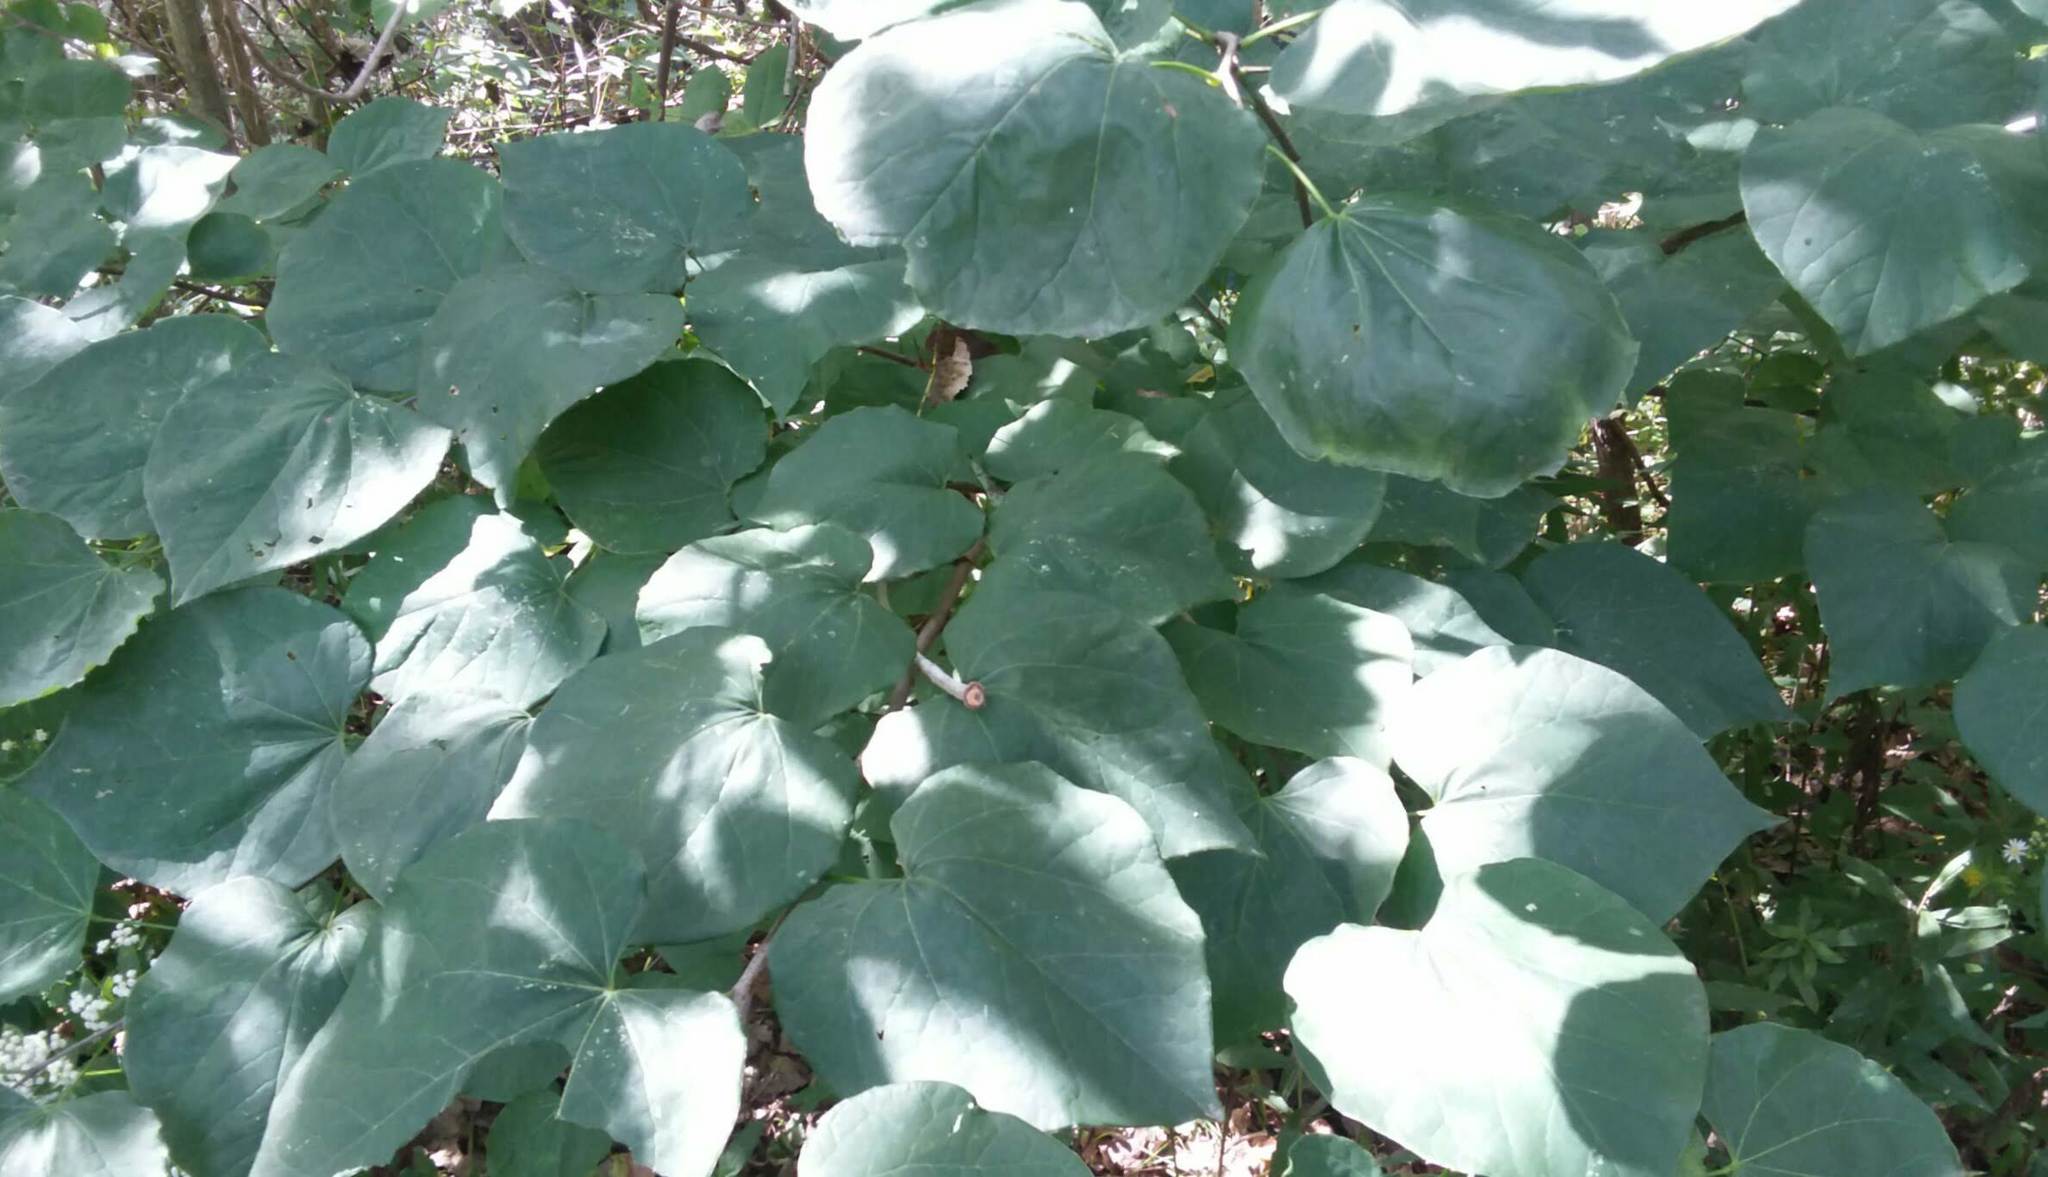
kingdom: Plantae
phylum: Tracheophyta
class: Magnoliopsida
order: Fabales
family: Fabaceae
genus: Cercis
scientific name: Cercis canadensis
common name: Eastern redbud
